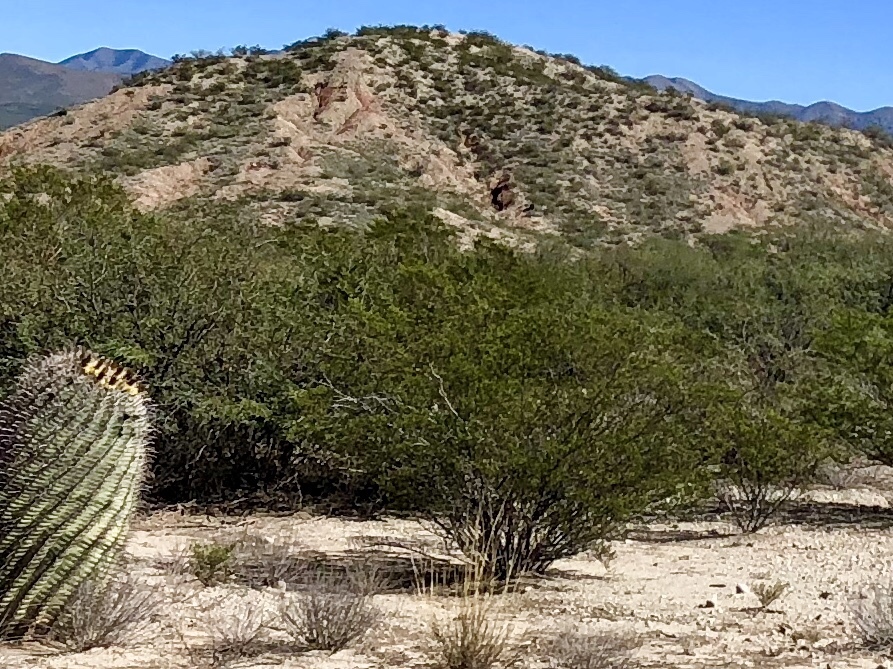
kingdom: Plantae
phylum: Tracheophyta
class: Magnoliopsida
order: Zygophyllales
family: Zygophyllaceae
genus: Larrea
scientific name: Larrea tridentata
